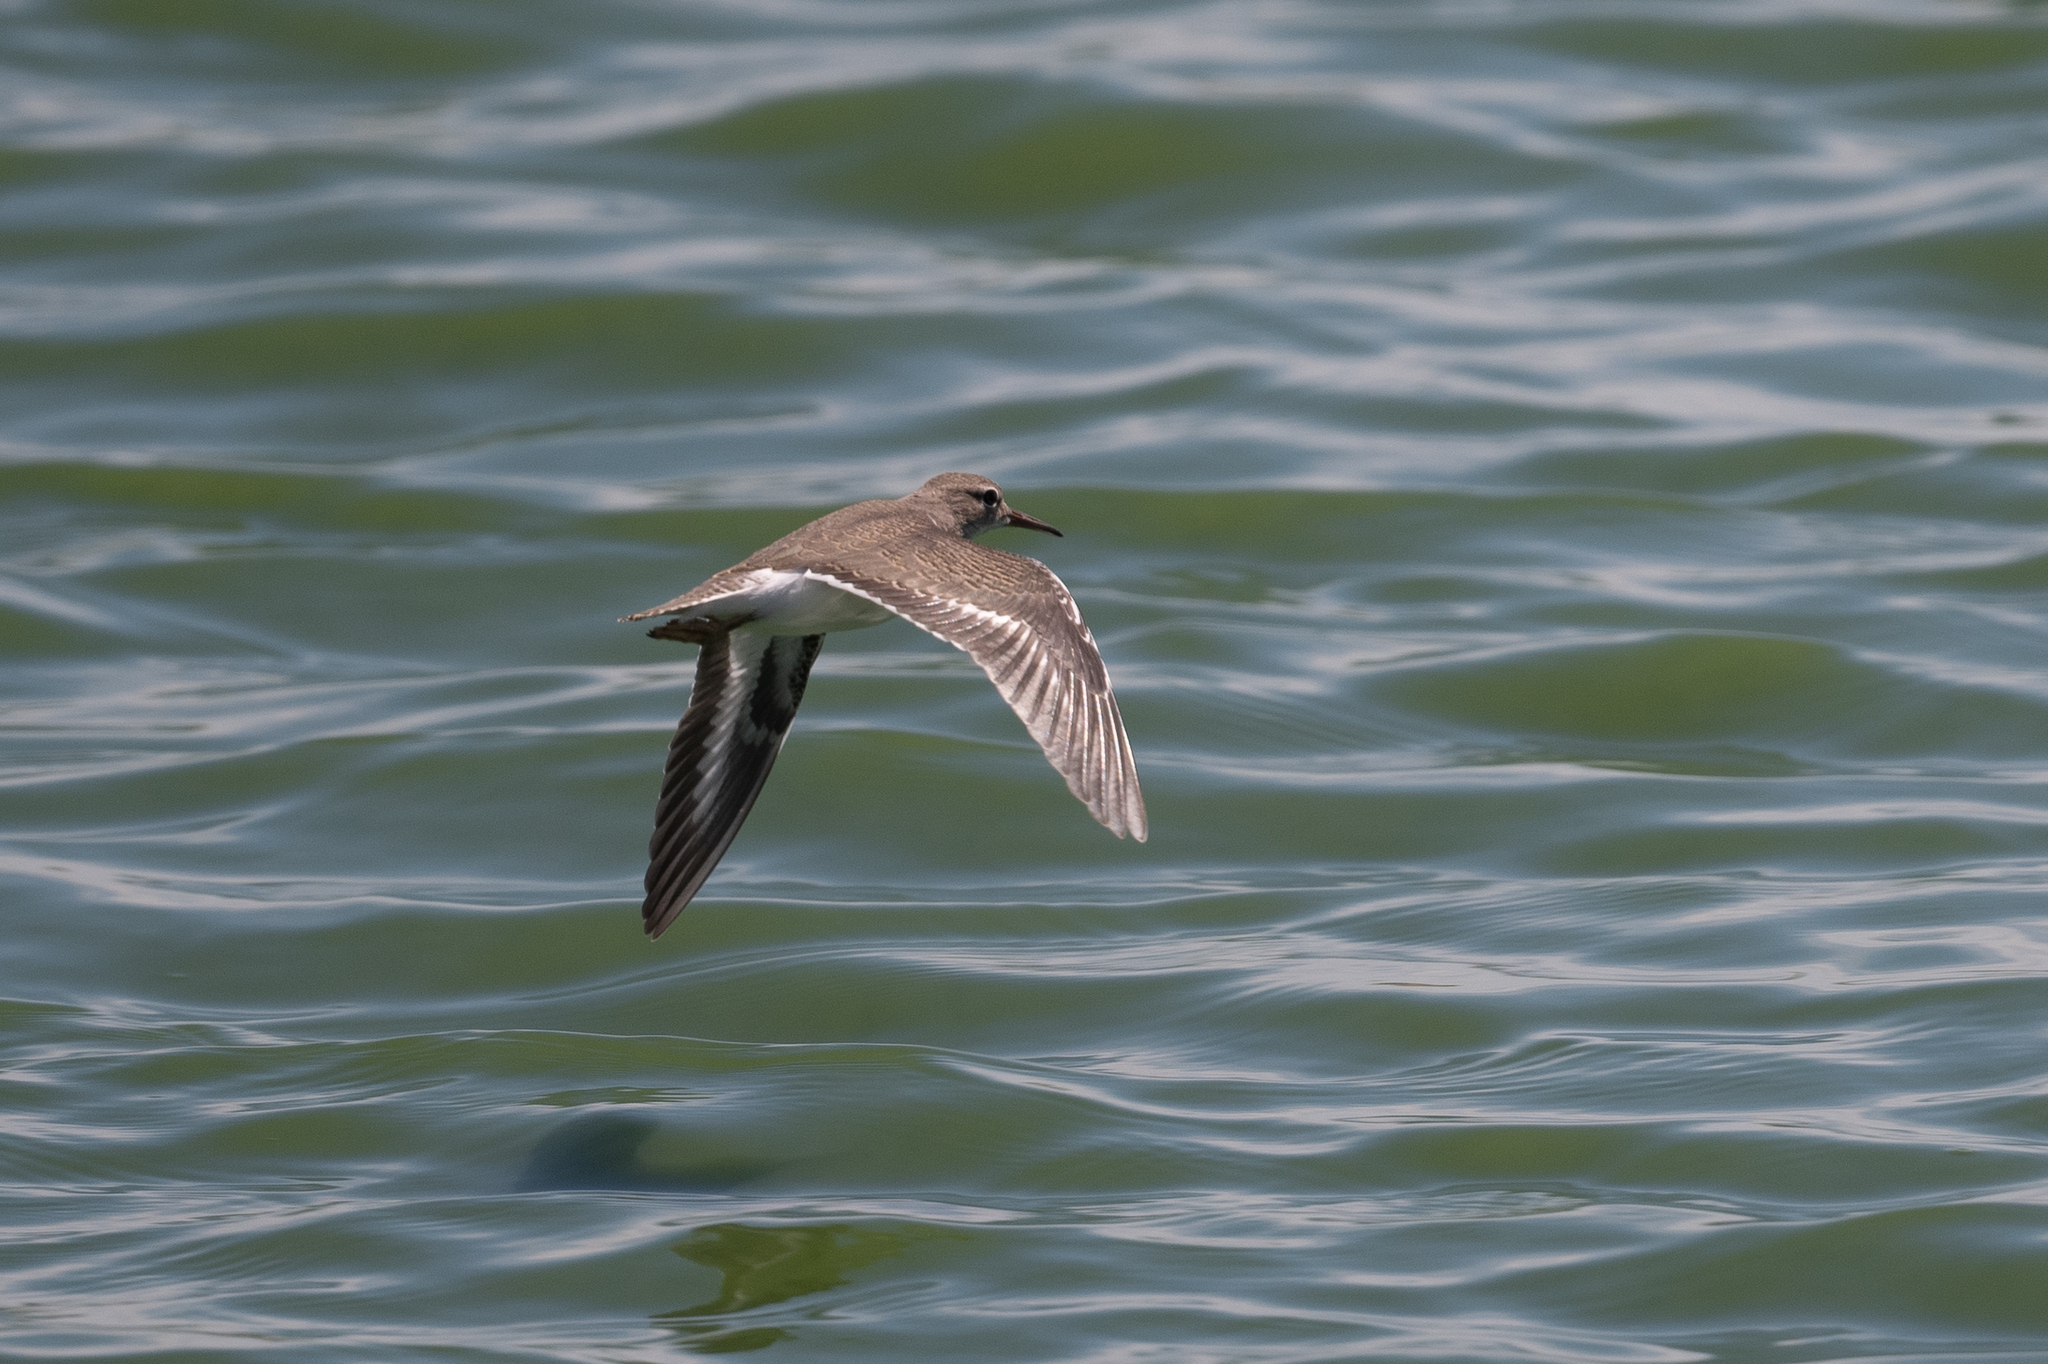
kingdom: Animalia
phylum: Chordata
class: Aves
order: Charadriiformes
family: Scolopacidae
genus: Actitis
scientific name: Actitis macularius
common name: Spotted sandpiper
